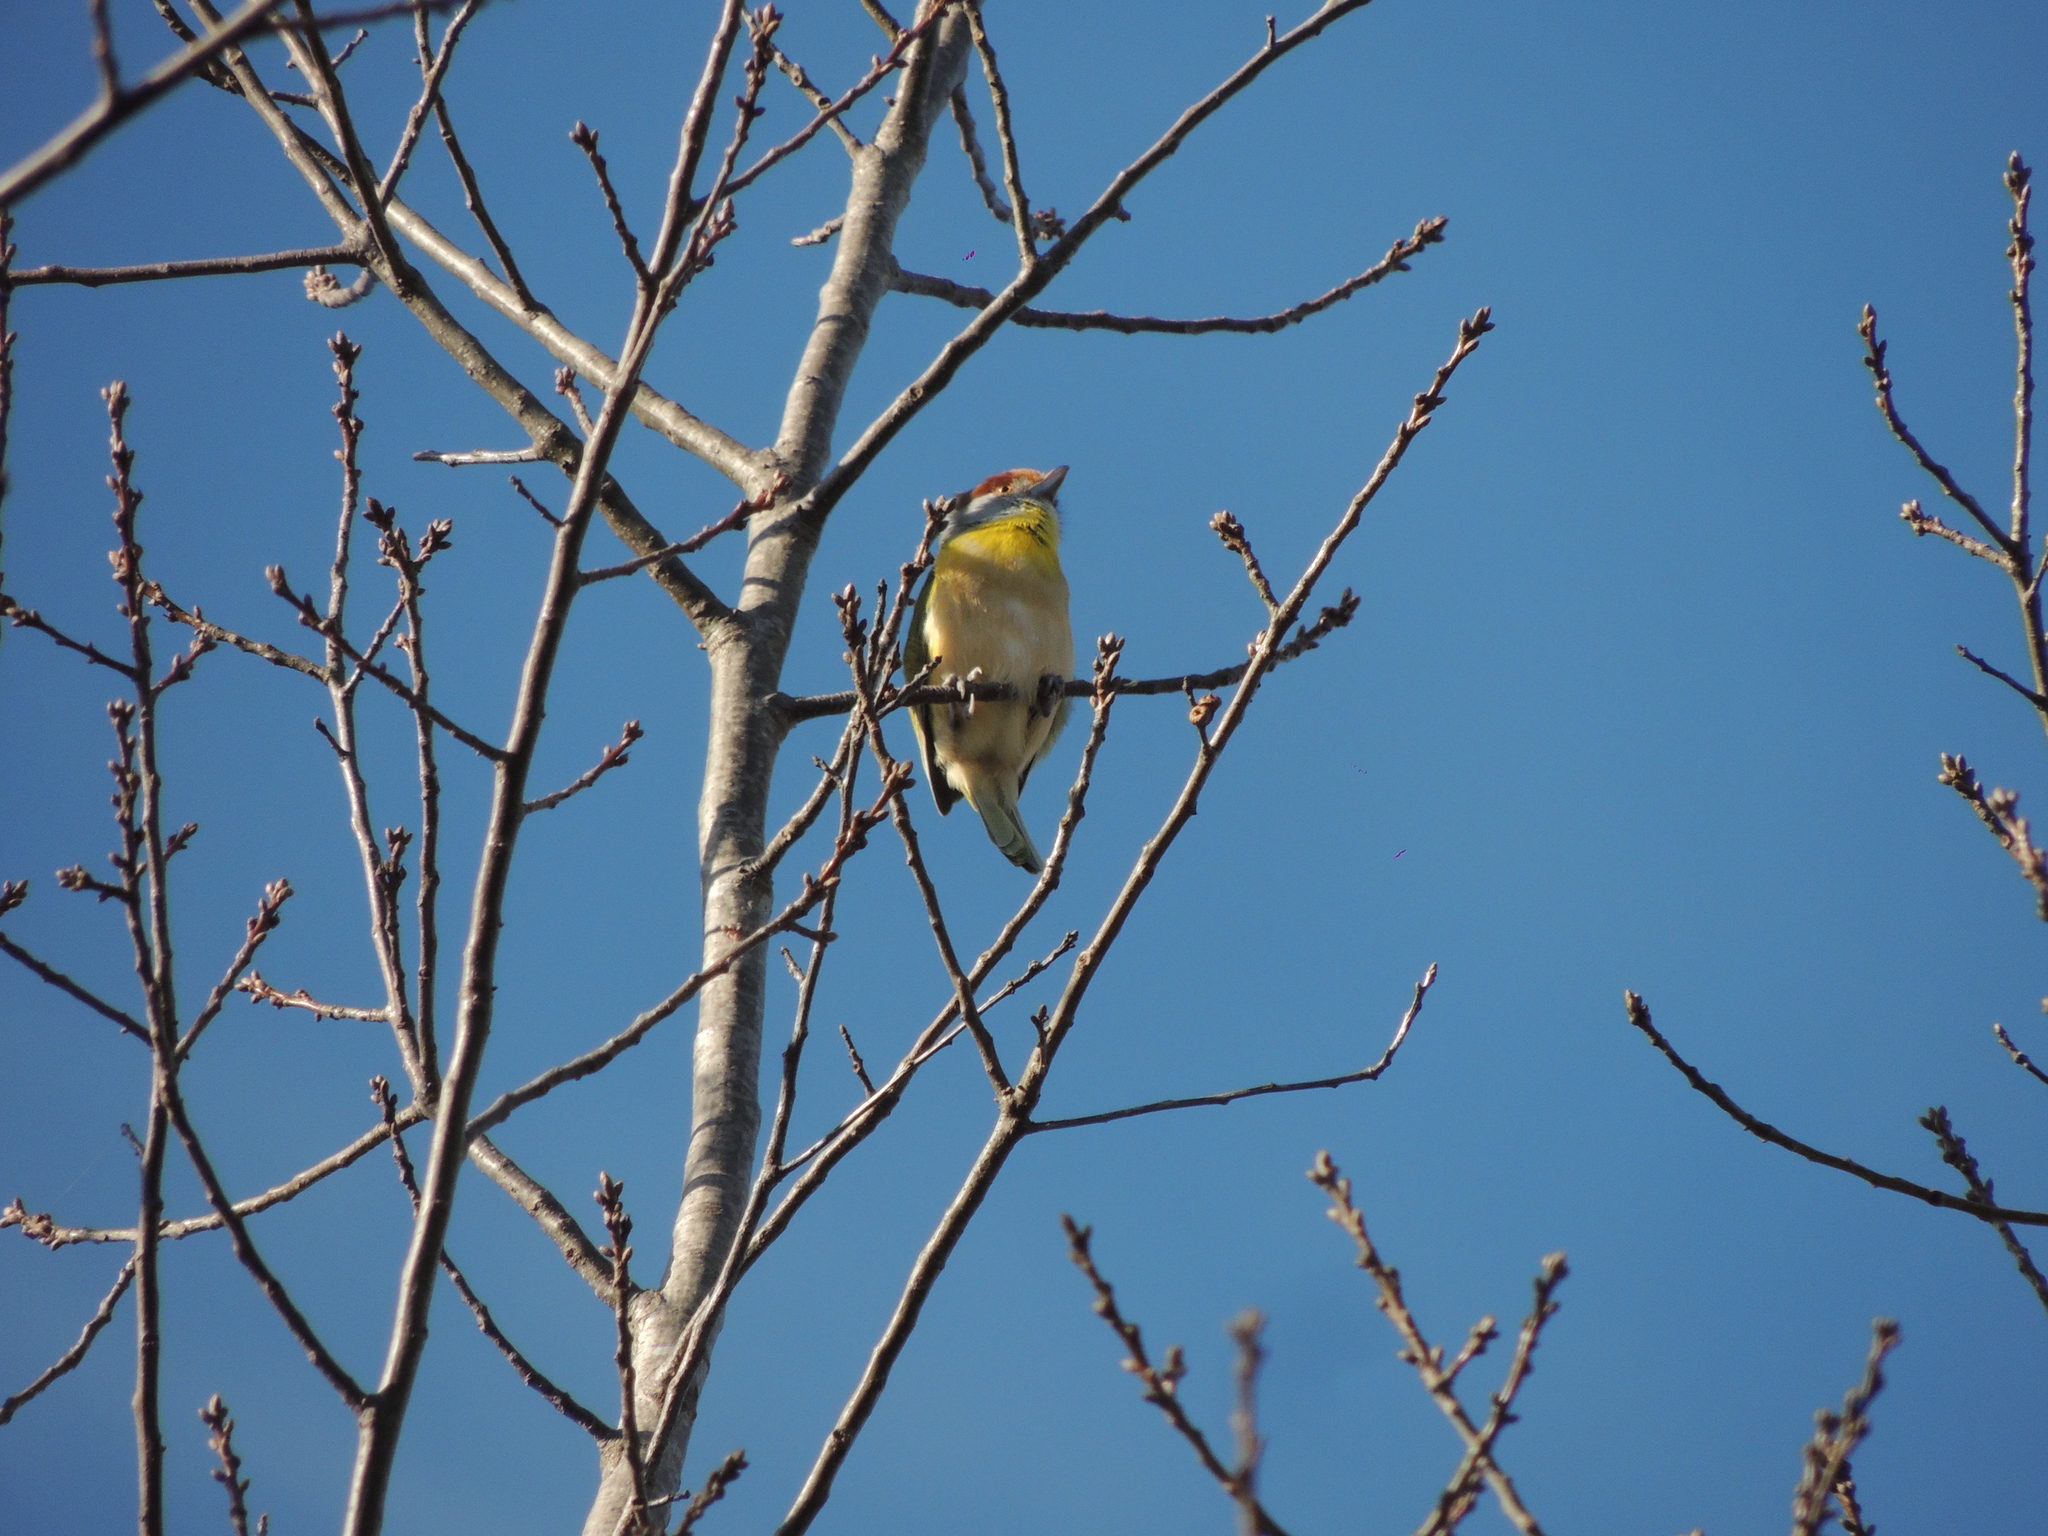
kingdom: Animalia
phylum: Chordata
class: Aves
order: Passeriformes
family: Vireonidae
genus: Cyclarhis
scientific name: Cyclarhis gujanensis
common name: Rufous-browed peppershrike
